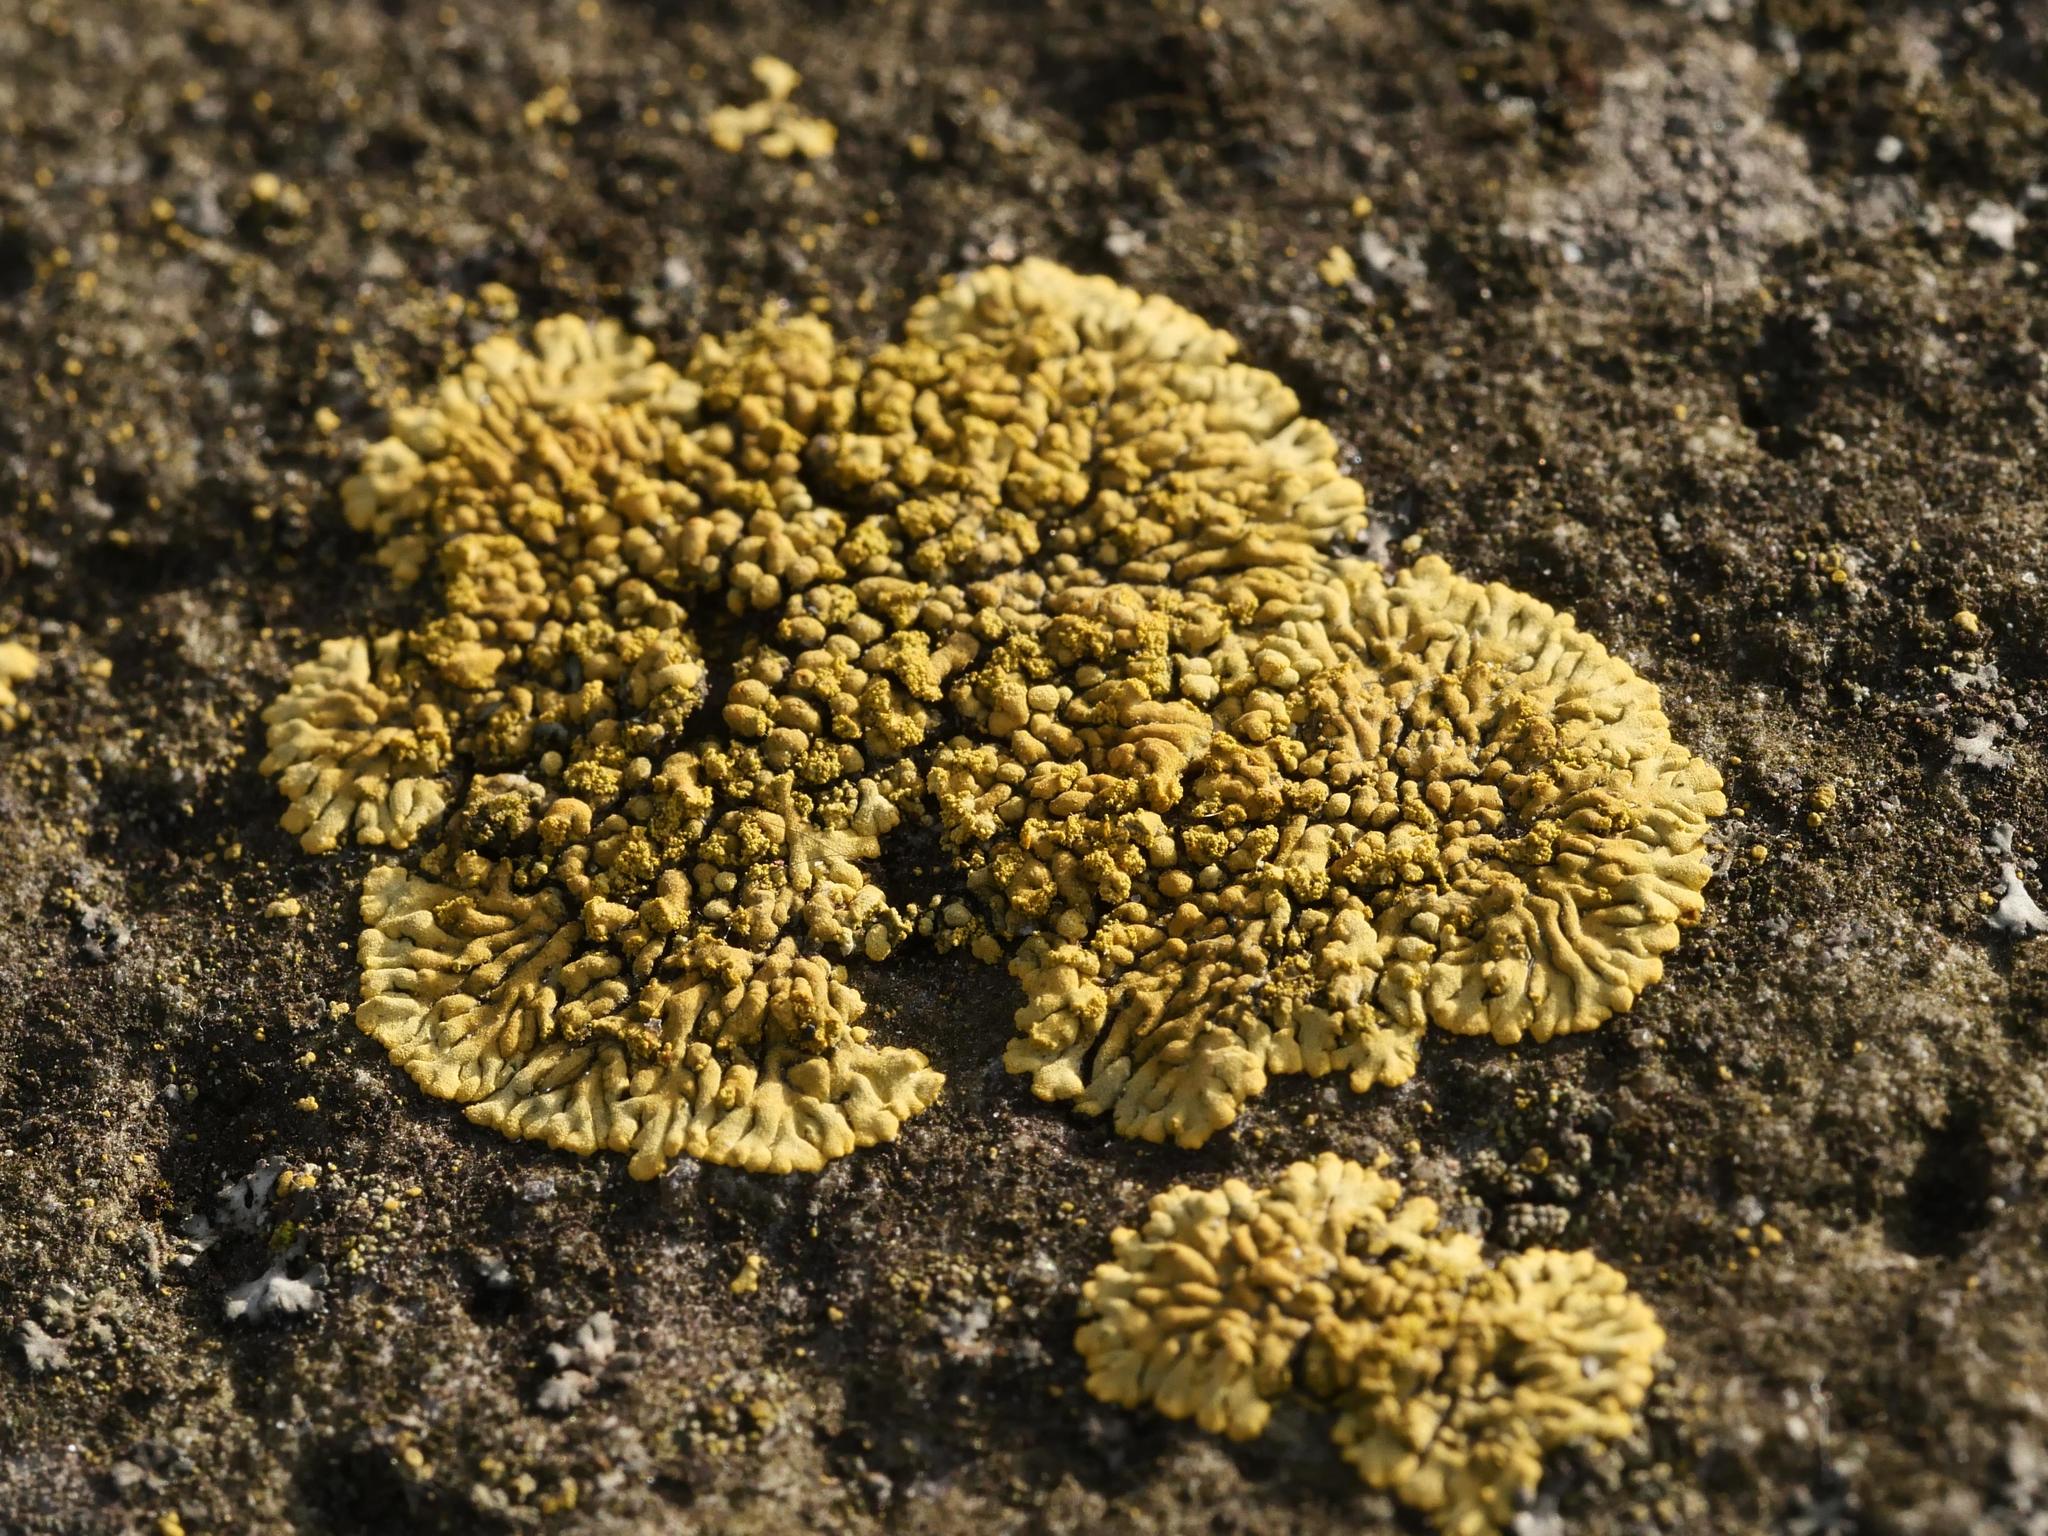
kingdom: Fungi
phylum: Ascomycota
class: Lecanoromycetes
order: Teloschistales
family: Teloschistaceae
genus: Calogaya
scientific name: Calogaya decipiens
